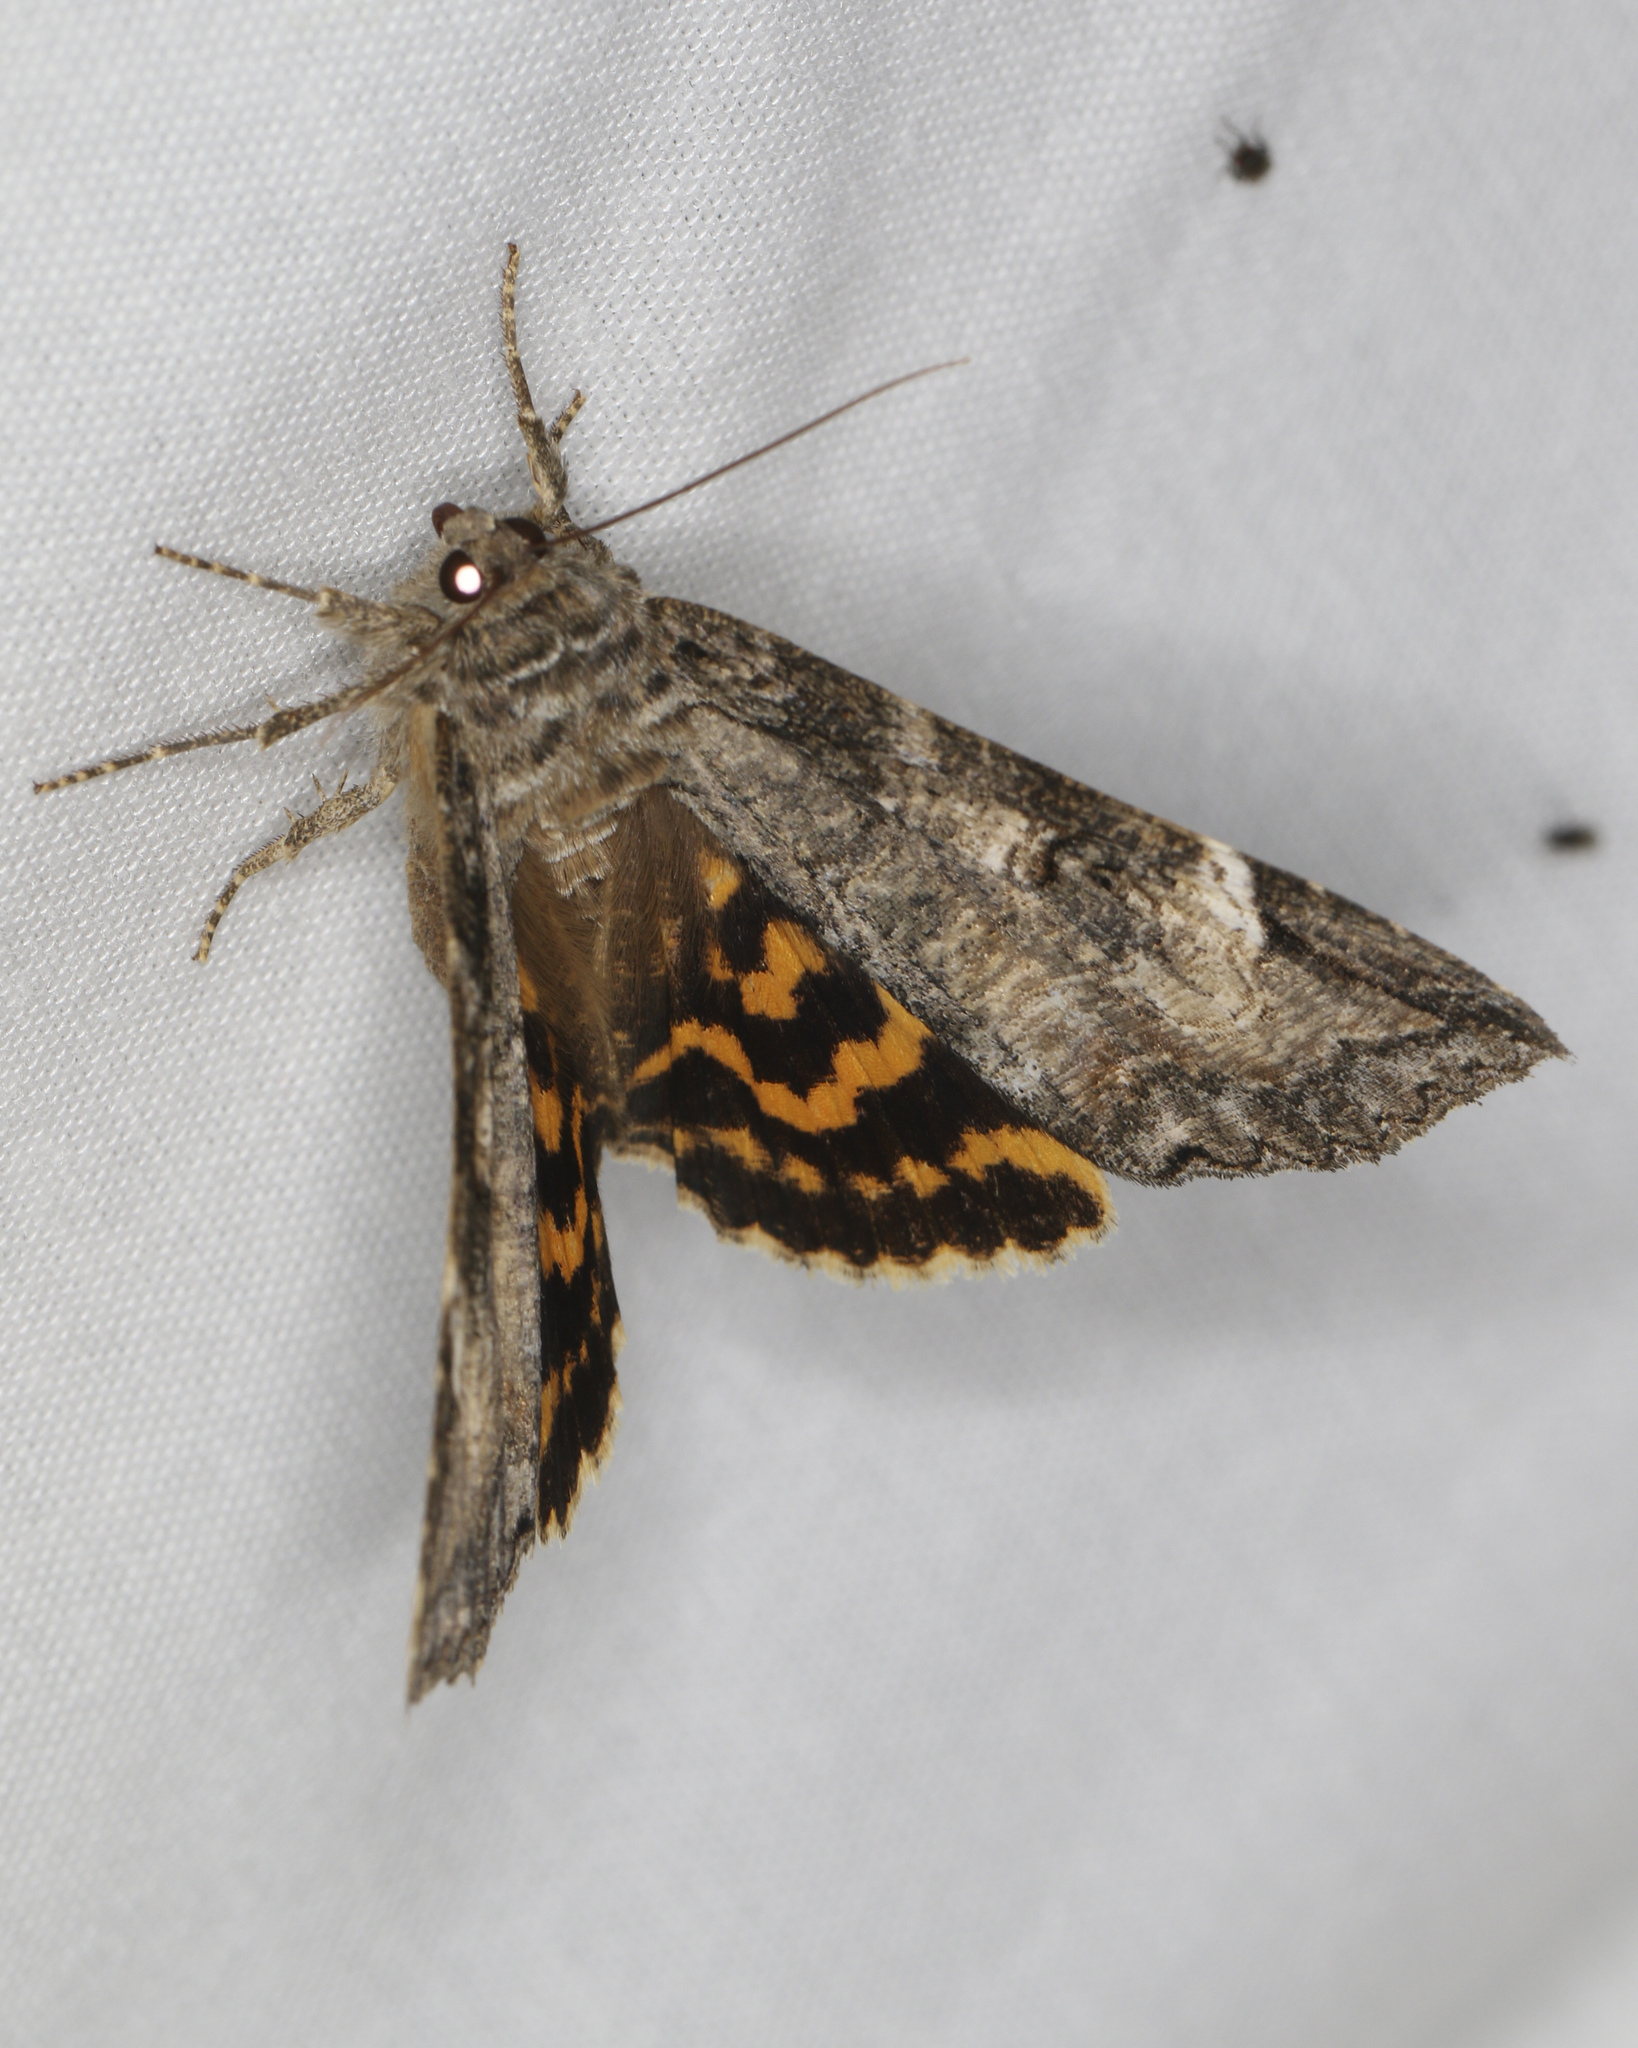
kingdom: Animalia
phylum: Arthropoda
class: Insecta
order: Lepidoptera
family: Erebidae
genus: Euparthenos
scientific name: Euparthenos nubilis
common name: Locust underwing
